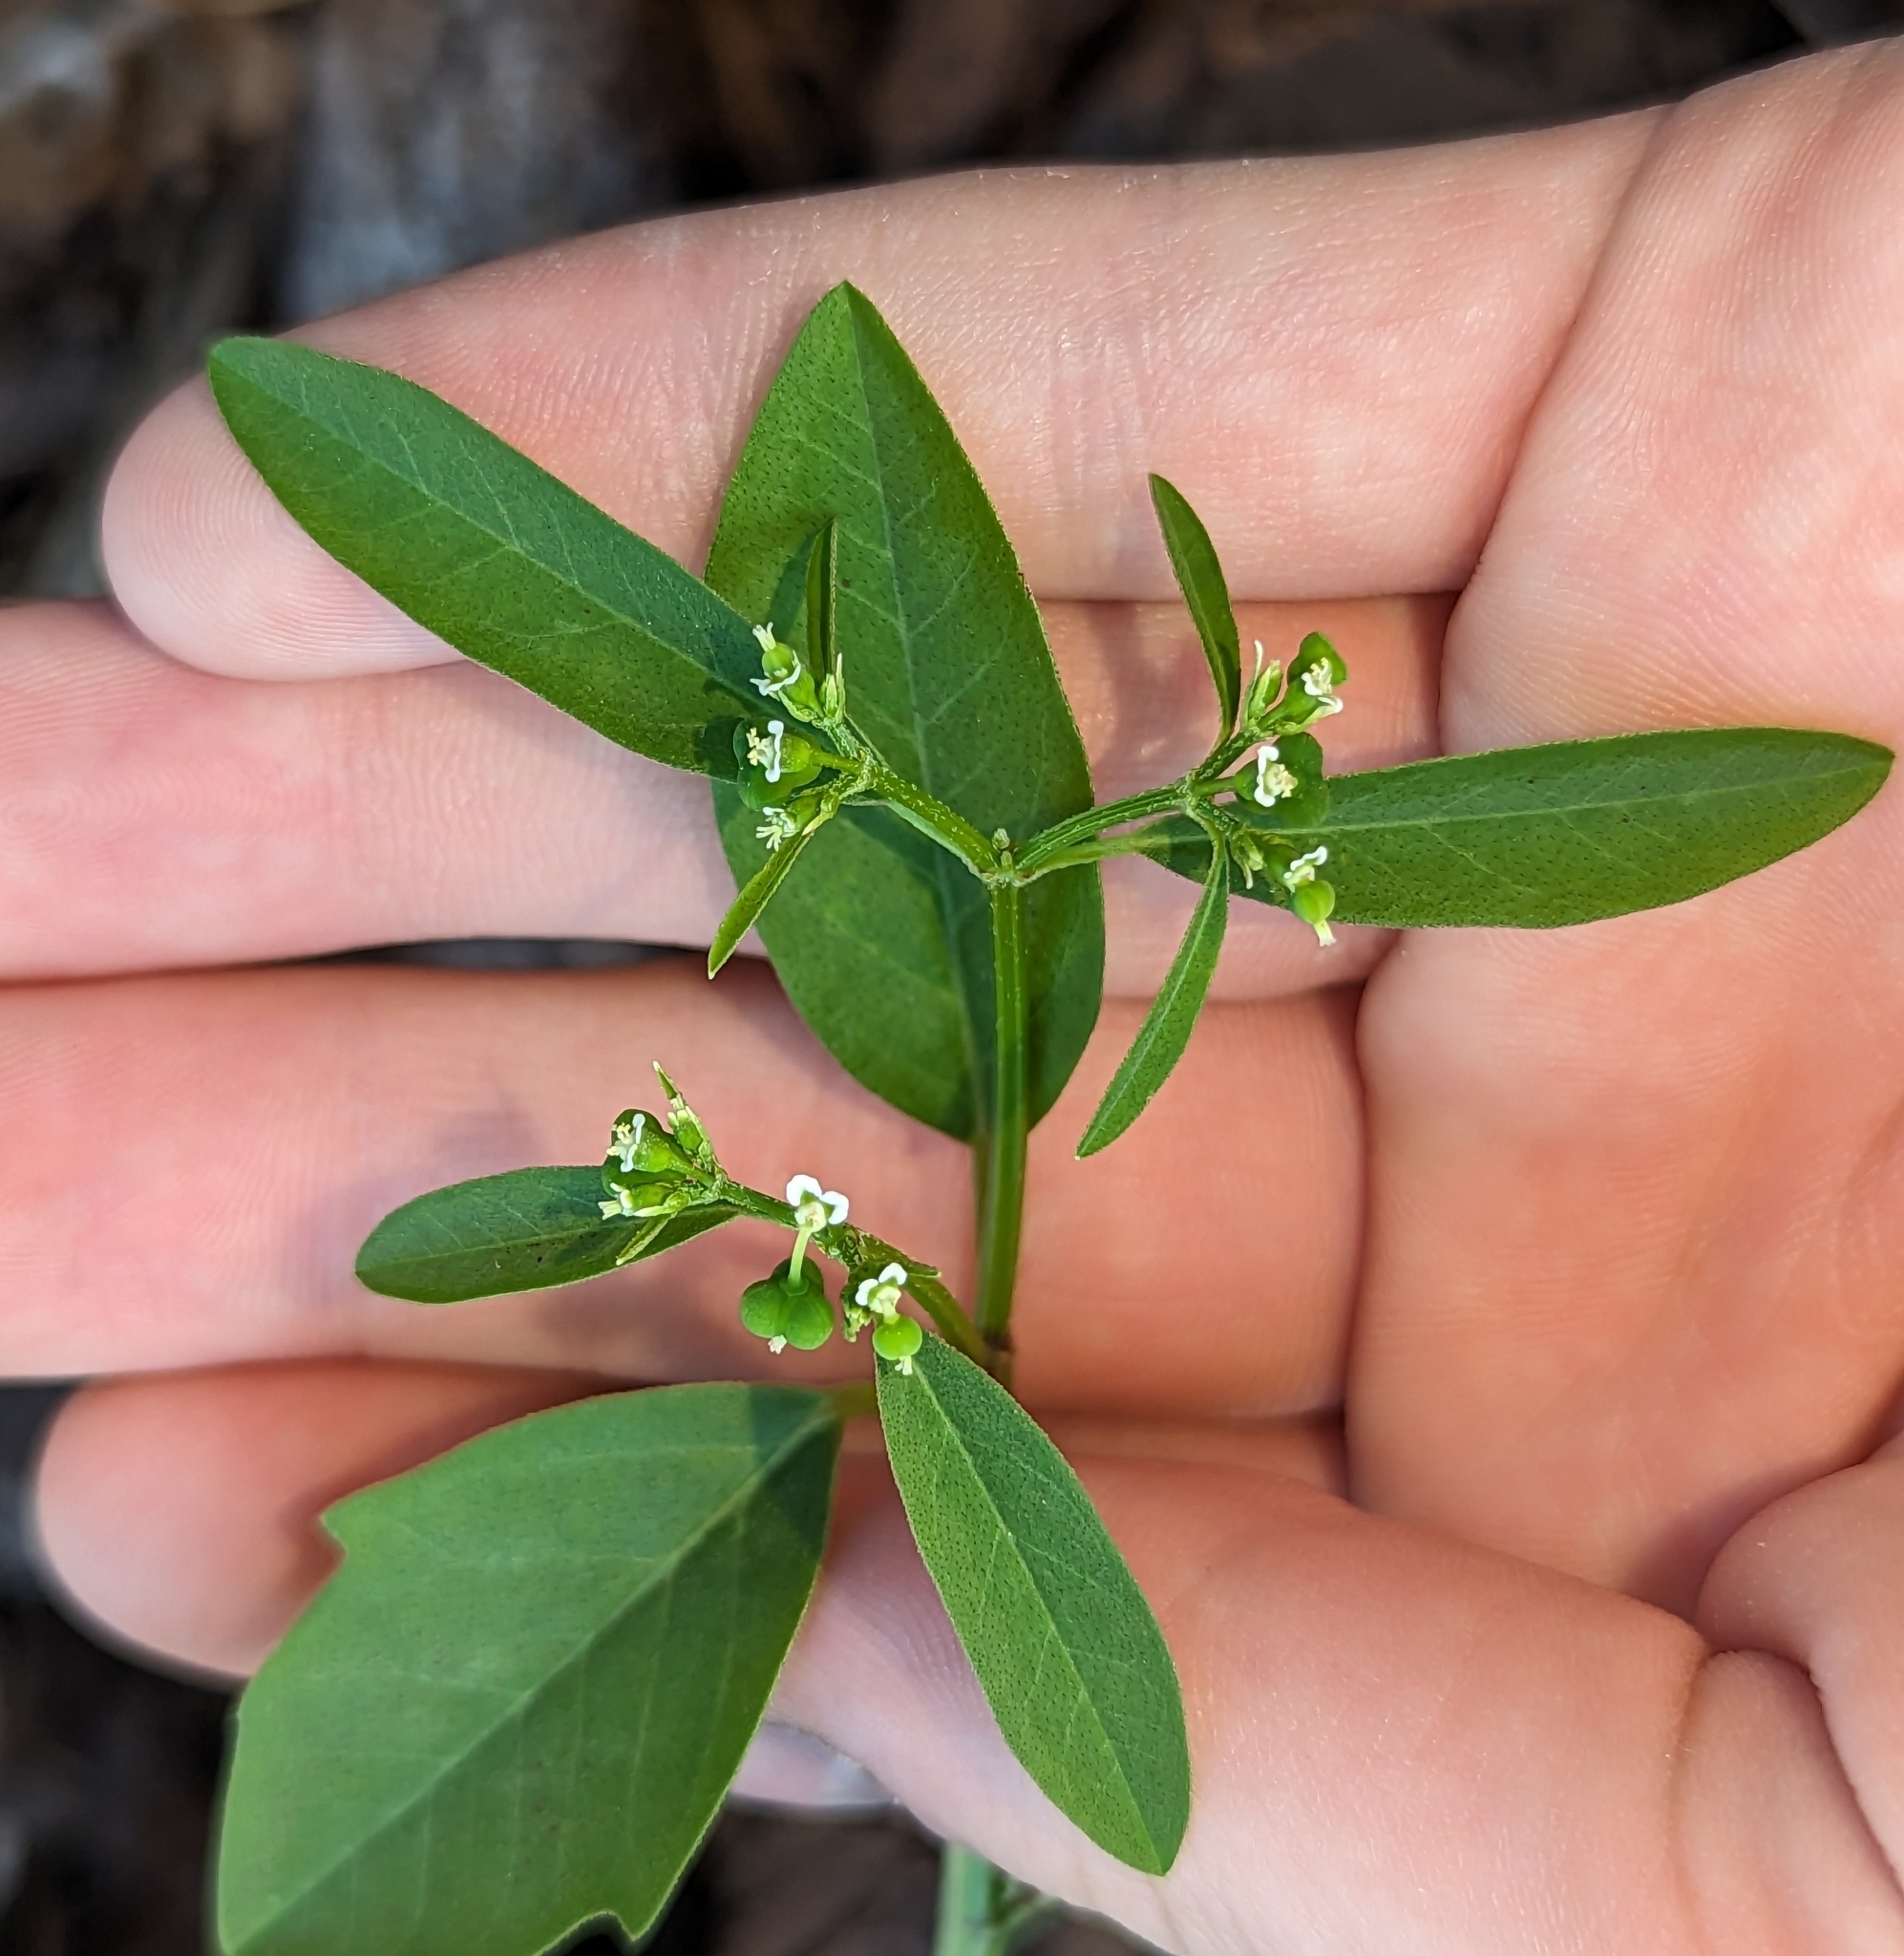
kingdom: Plantae
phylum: Tracheophyta
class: Magnoliopsida
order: Malpighiales
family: Euphorbiaceae
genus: Euphorbia
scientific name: Euphorbia graminea
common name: Grassleaf spurge
